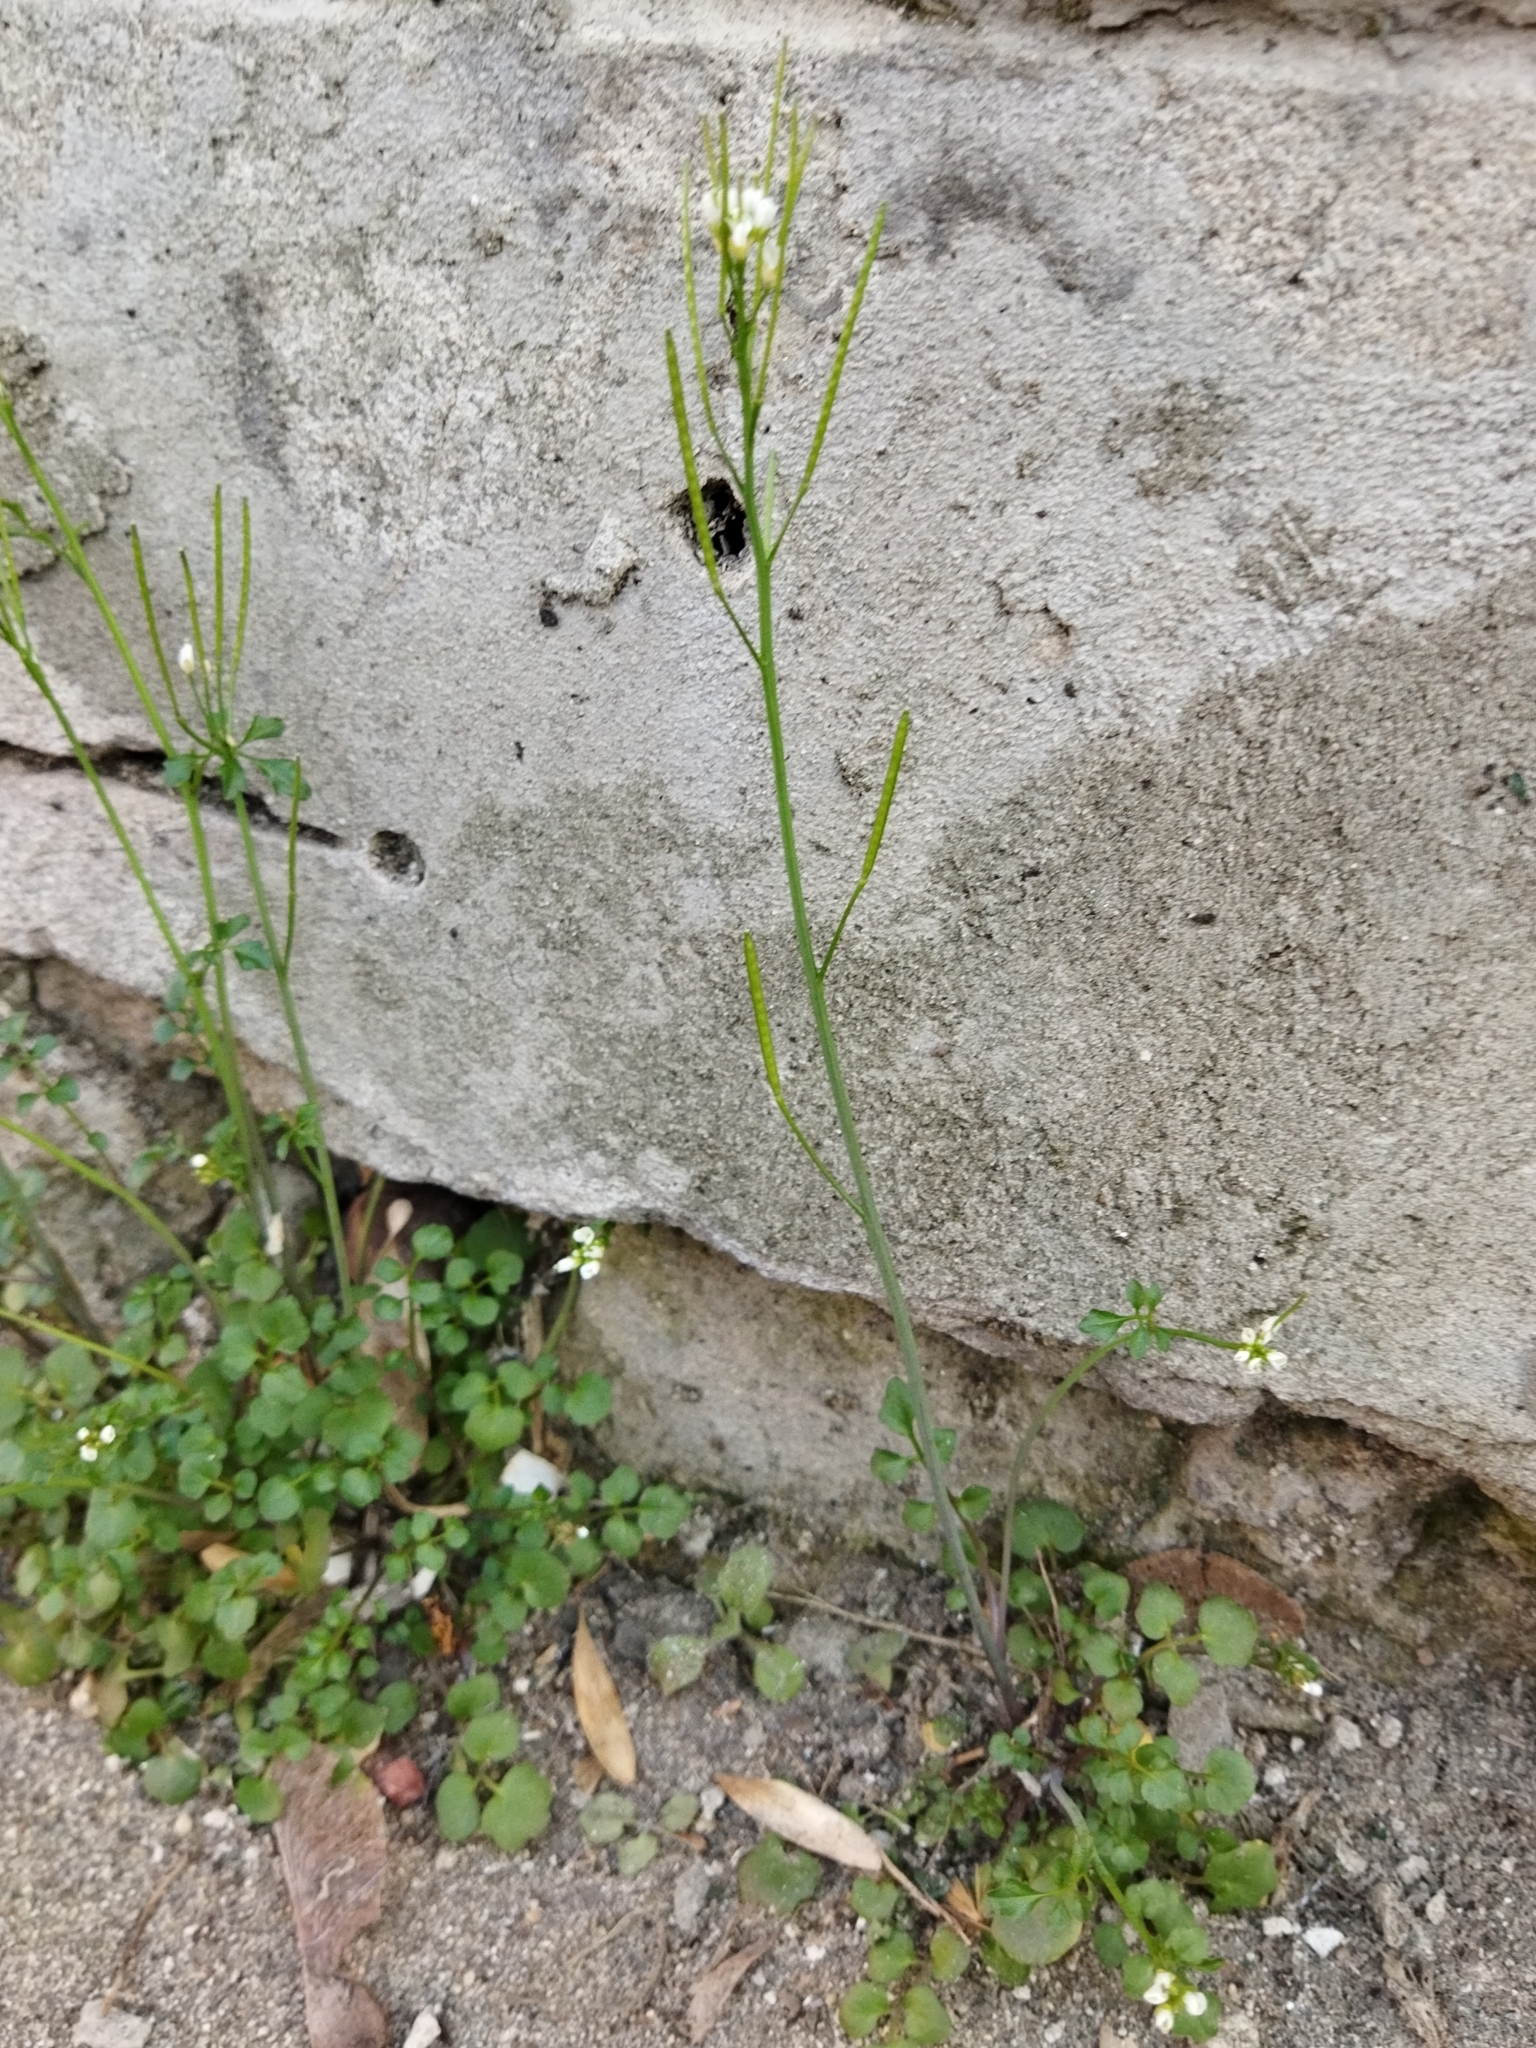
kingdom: Plantae
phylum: Tracheophyta
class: Magnoliopsida
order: Brassicales
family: Brassicaceae
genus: Cardamine
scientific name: Cardamine hirsuta
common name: Hairy bittercress
